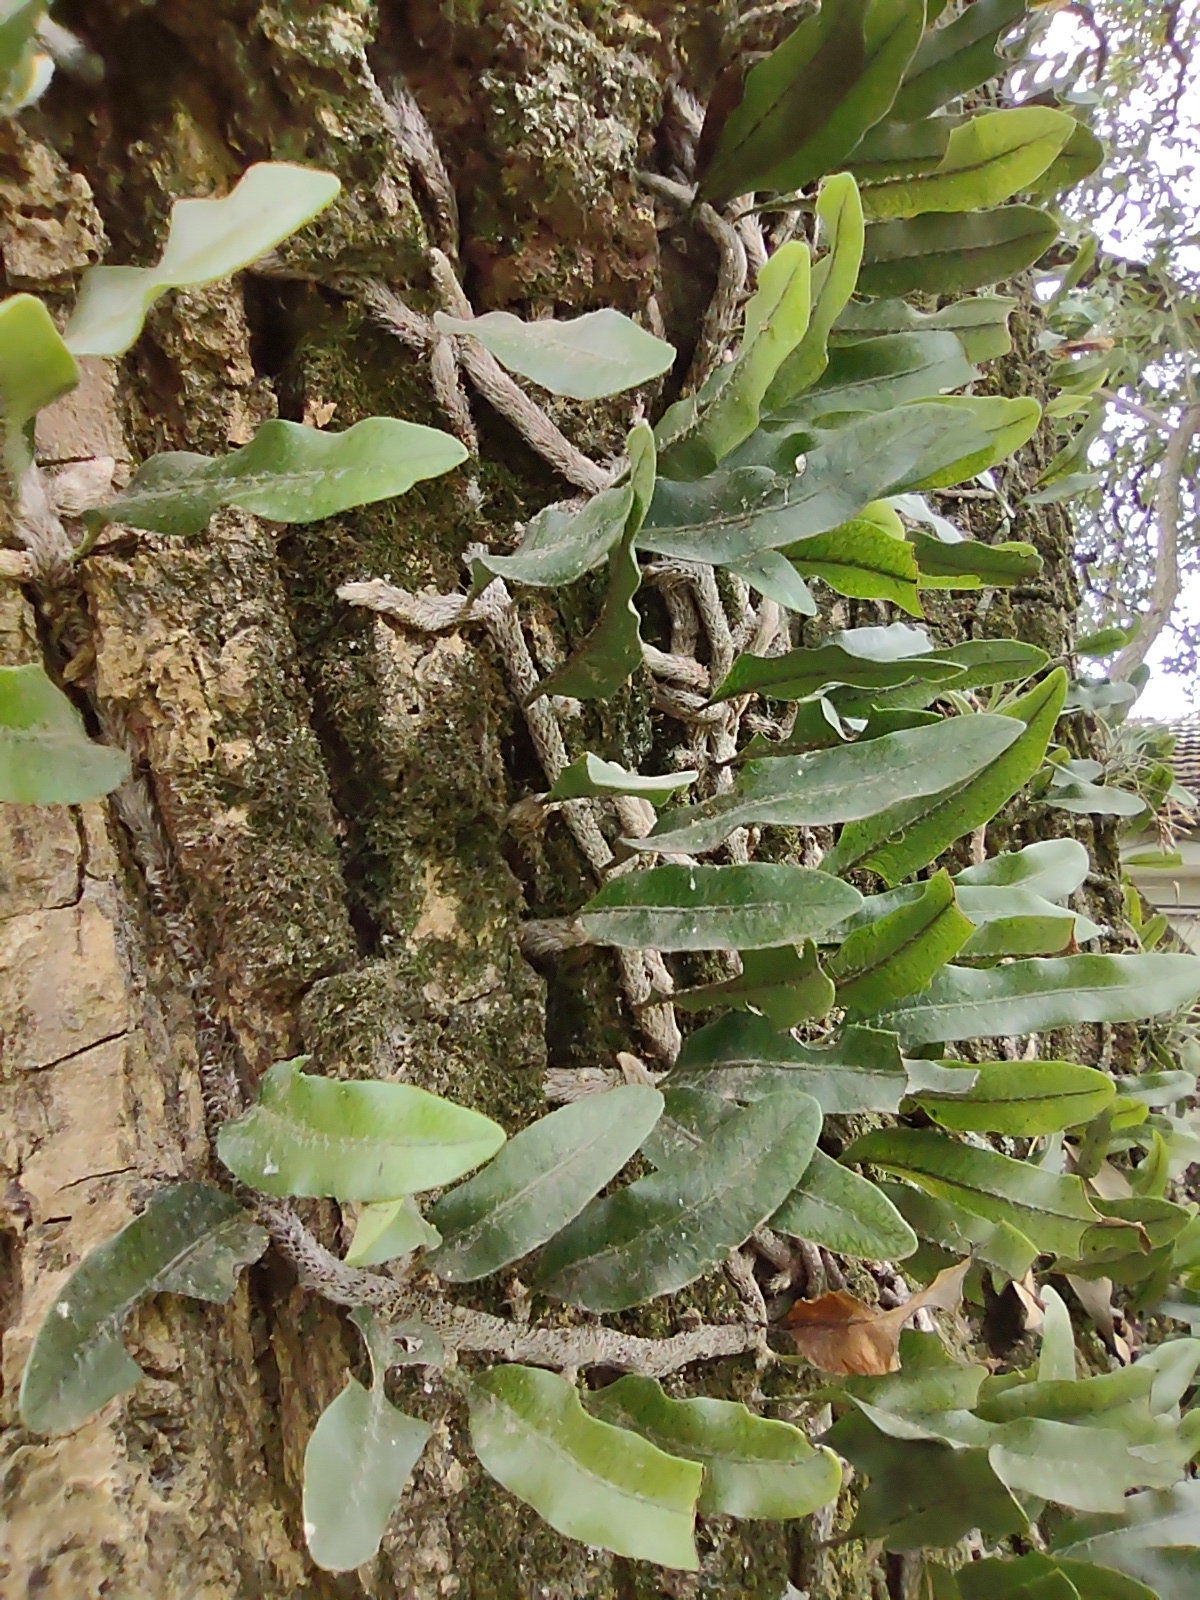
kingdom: Plantae
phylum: Tracheophyta
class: Polypodiopsida
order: Polypodiales
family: Polypodiaceae
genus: Microgramma
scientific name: Microgramma mortoniana
